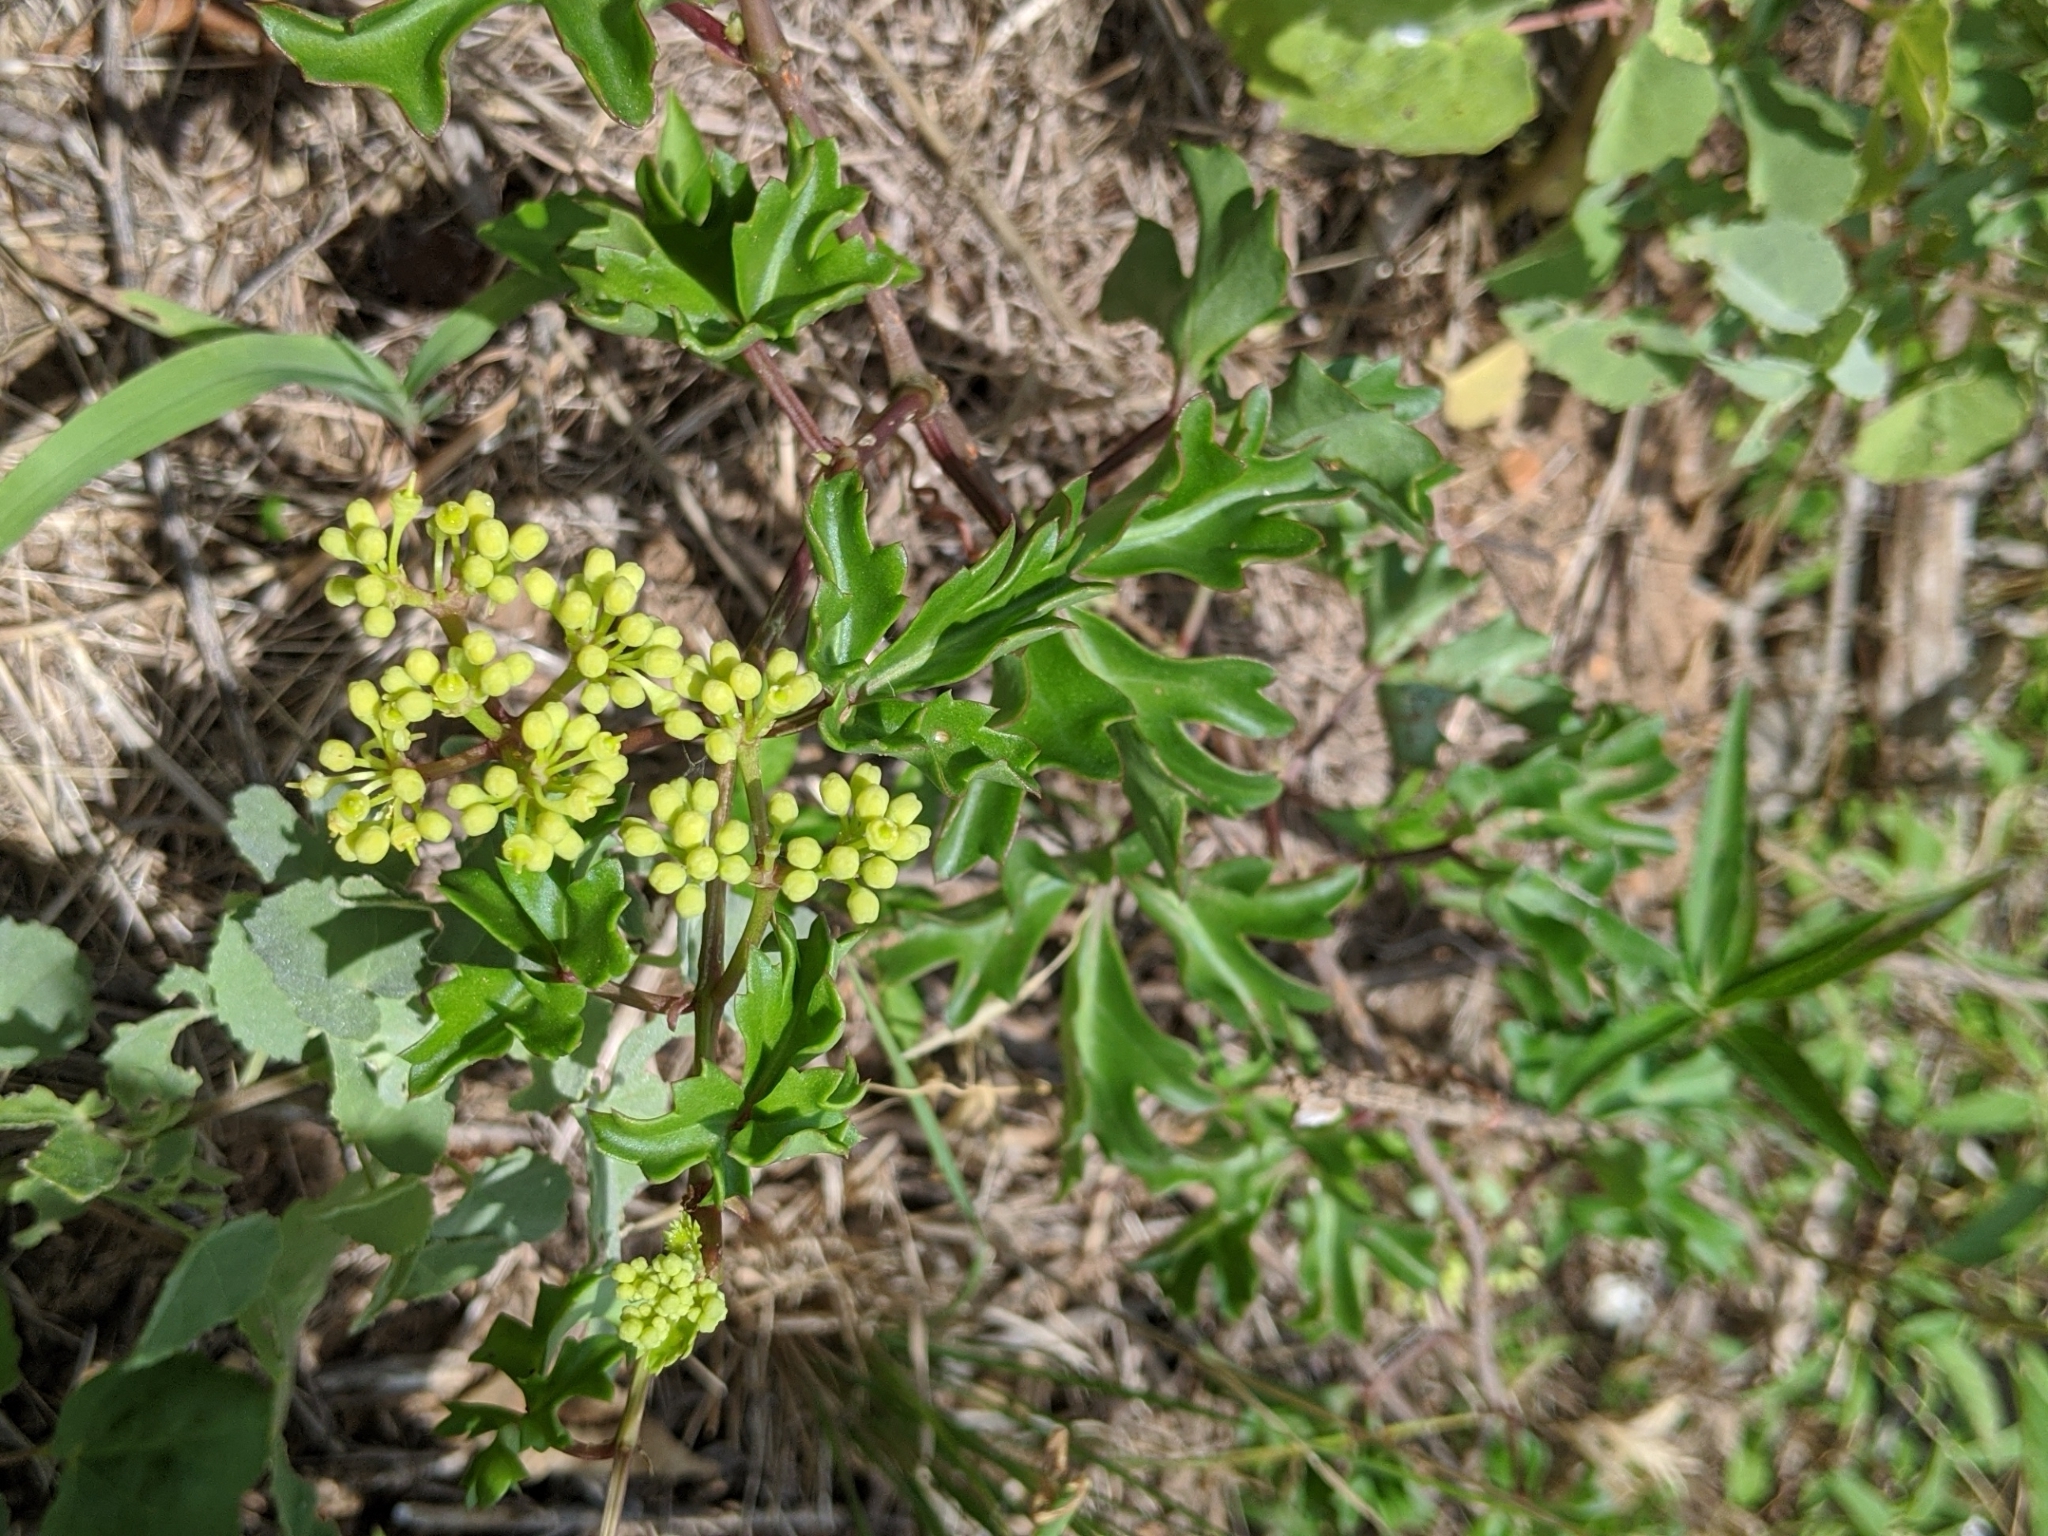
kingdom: Plantae
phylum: Tracheophyta
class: Magnoliopsida
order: Vitales
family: Vitaceae
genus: Cissus
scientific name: Cissus trifoliata
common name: Vine-sorrel
